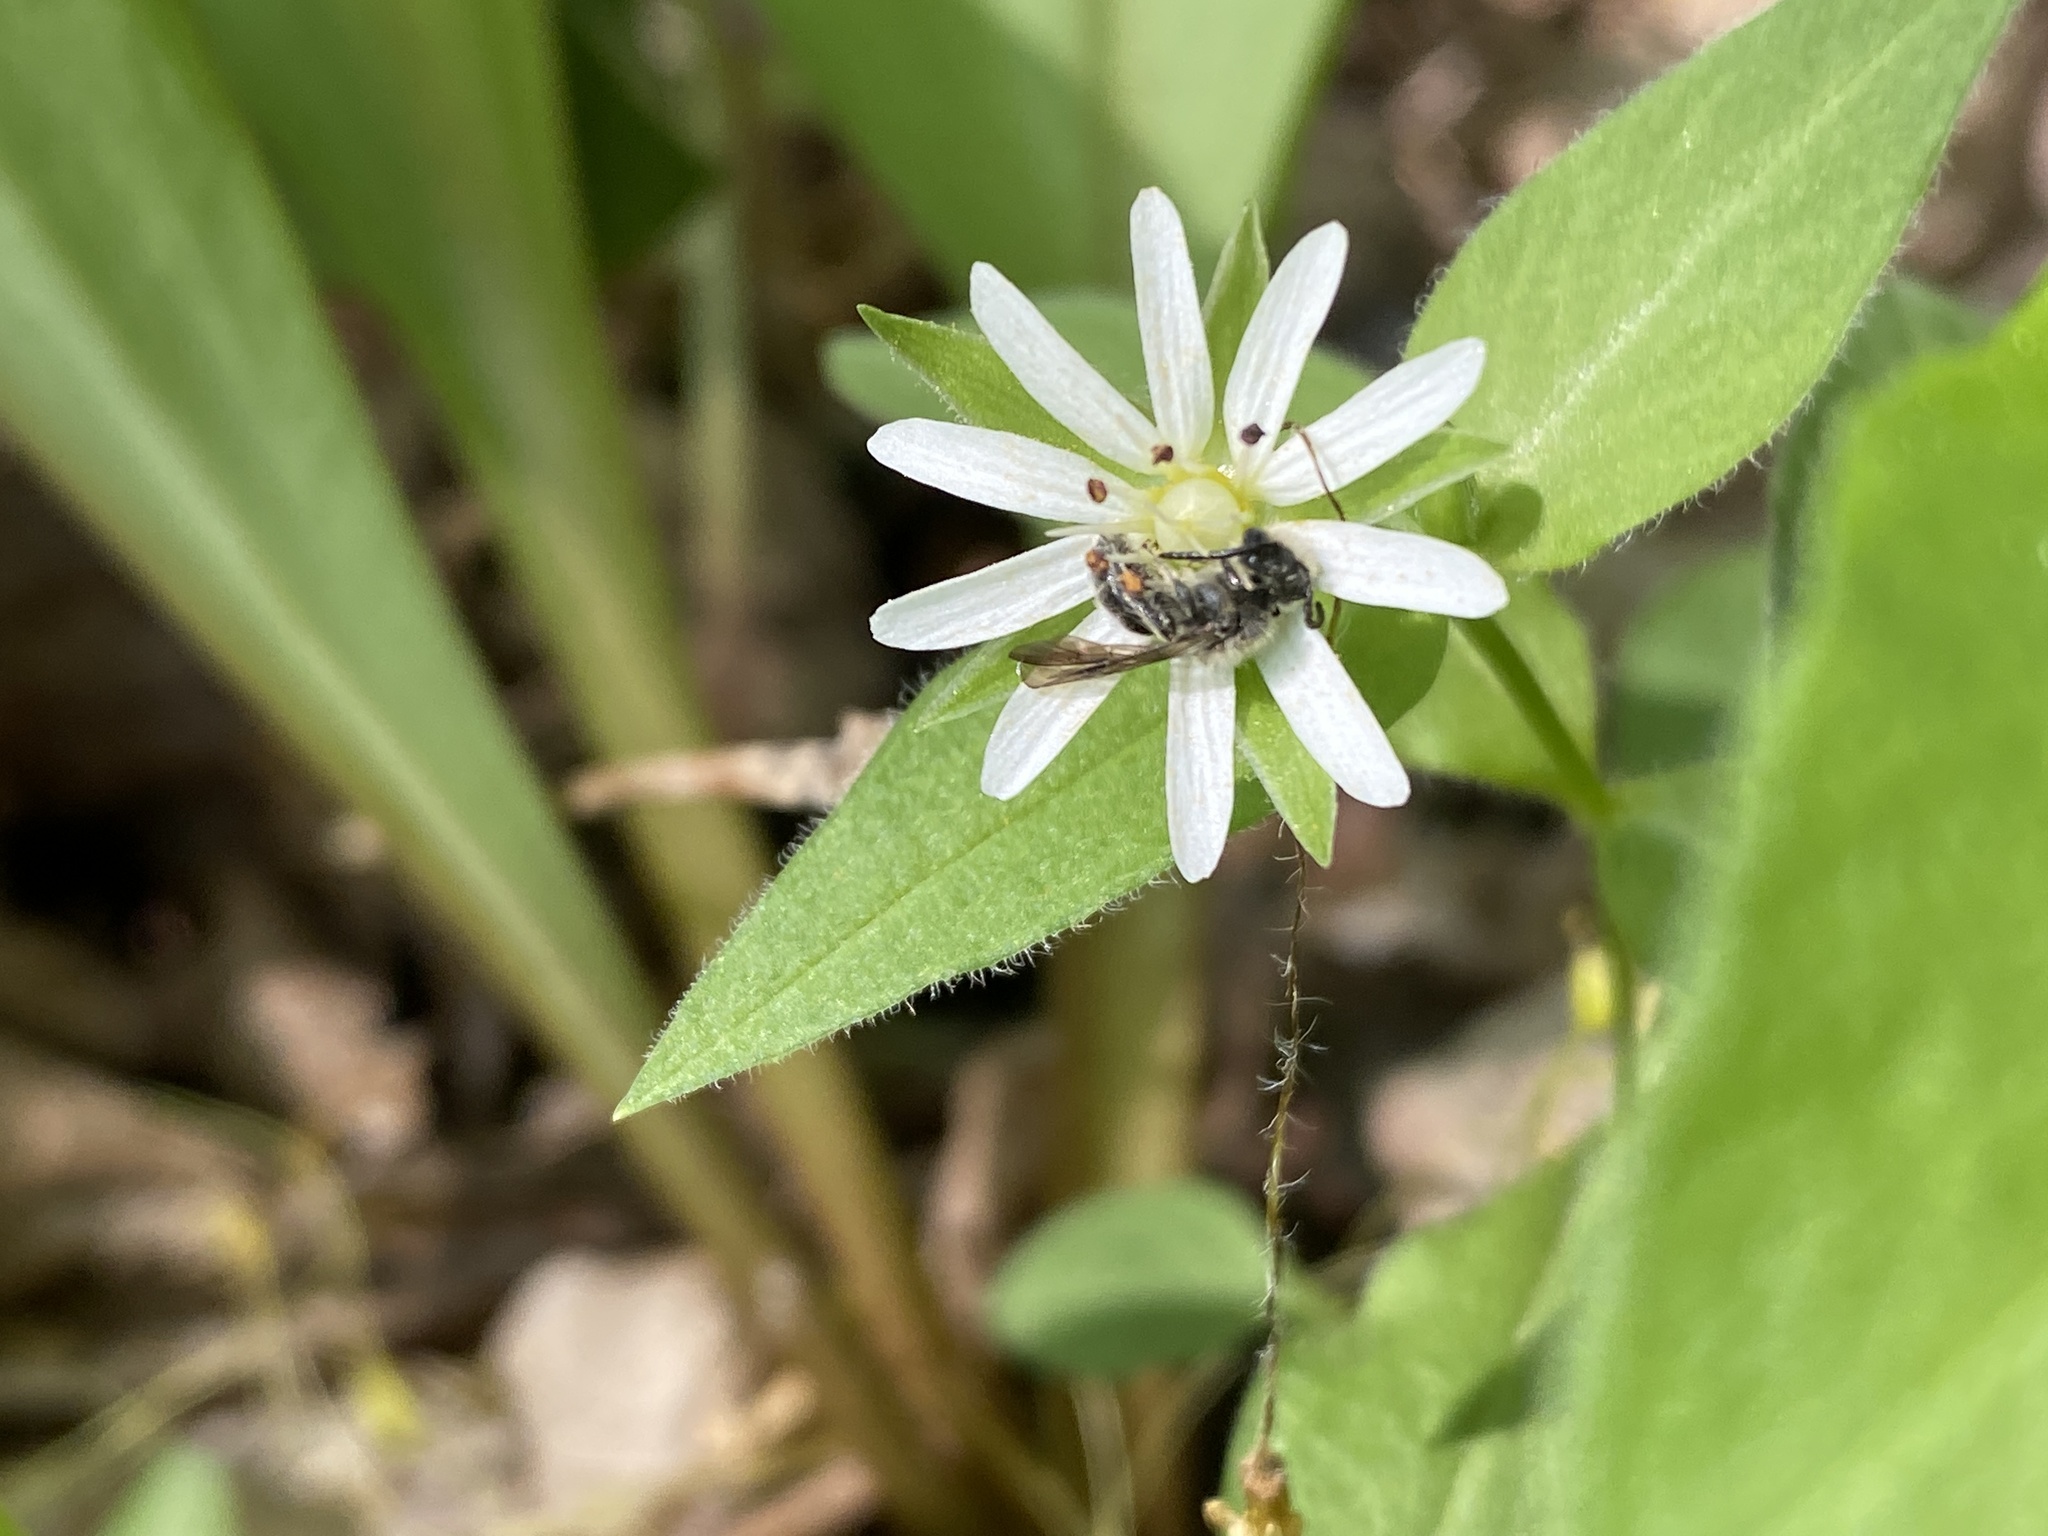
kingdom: Animalia
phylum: Arthropoda
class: Insecta
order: Hymenoptera
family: Andrenidae
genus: Andrena
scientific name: Andrena
